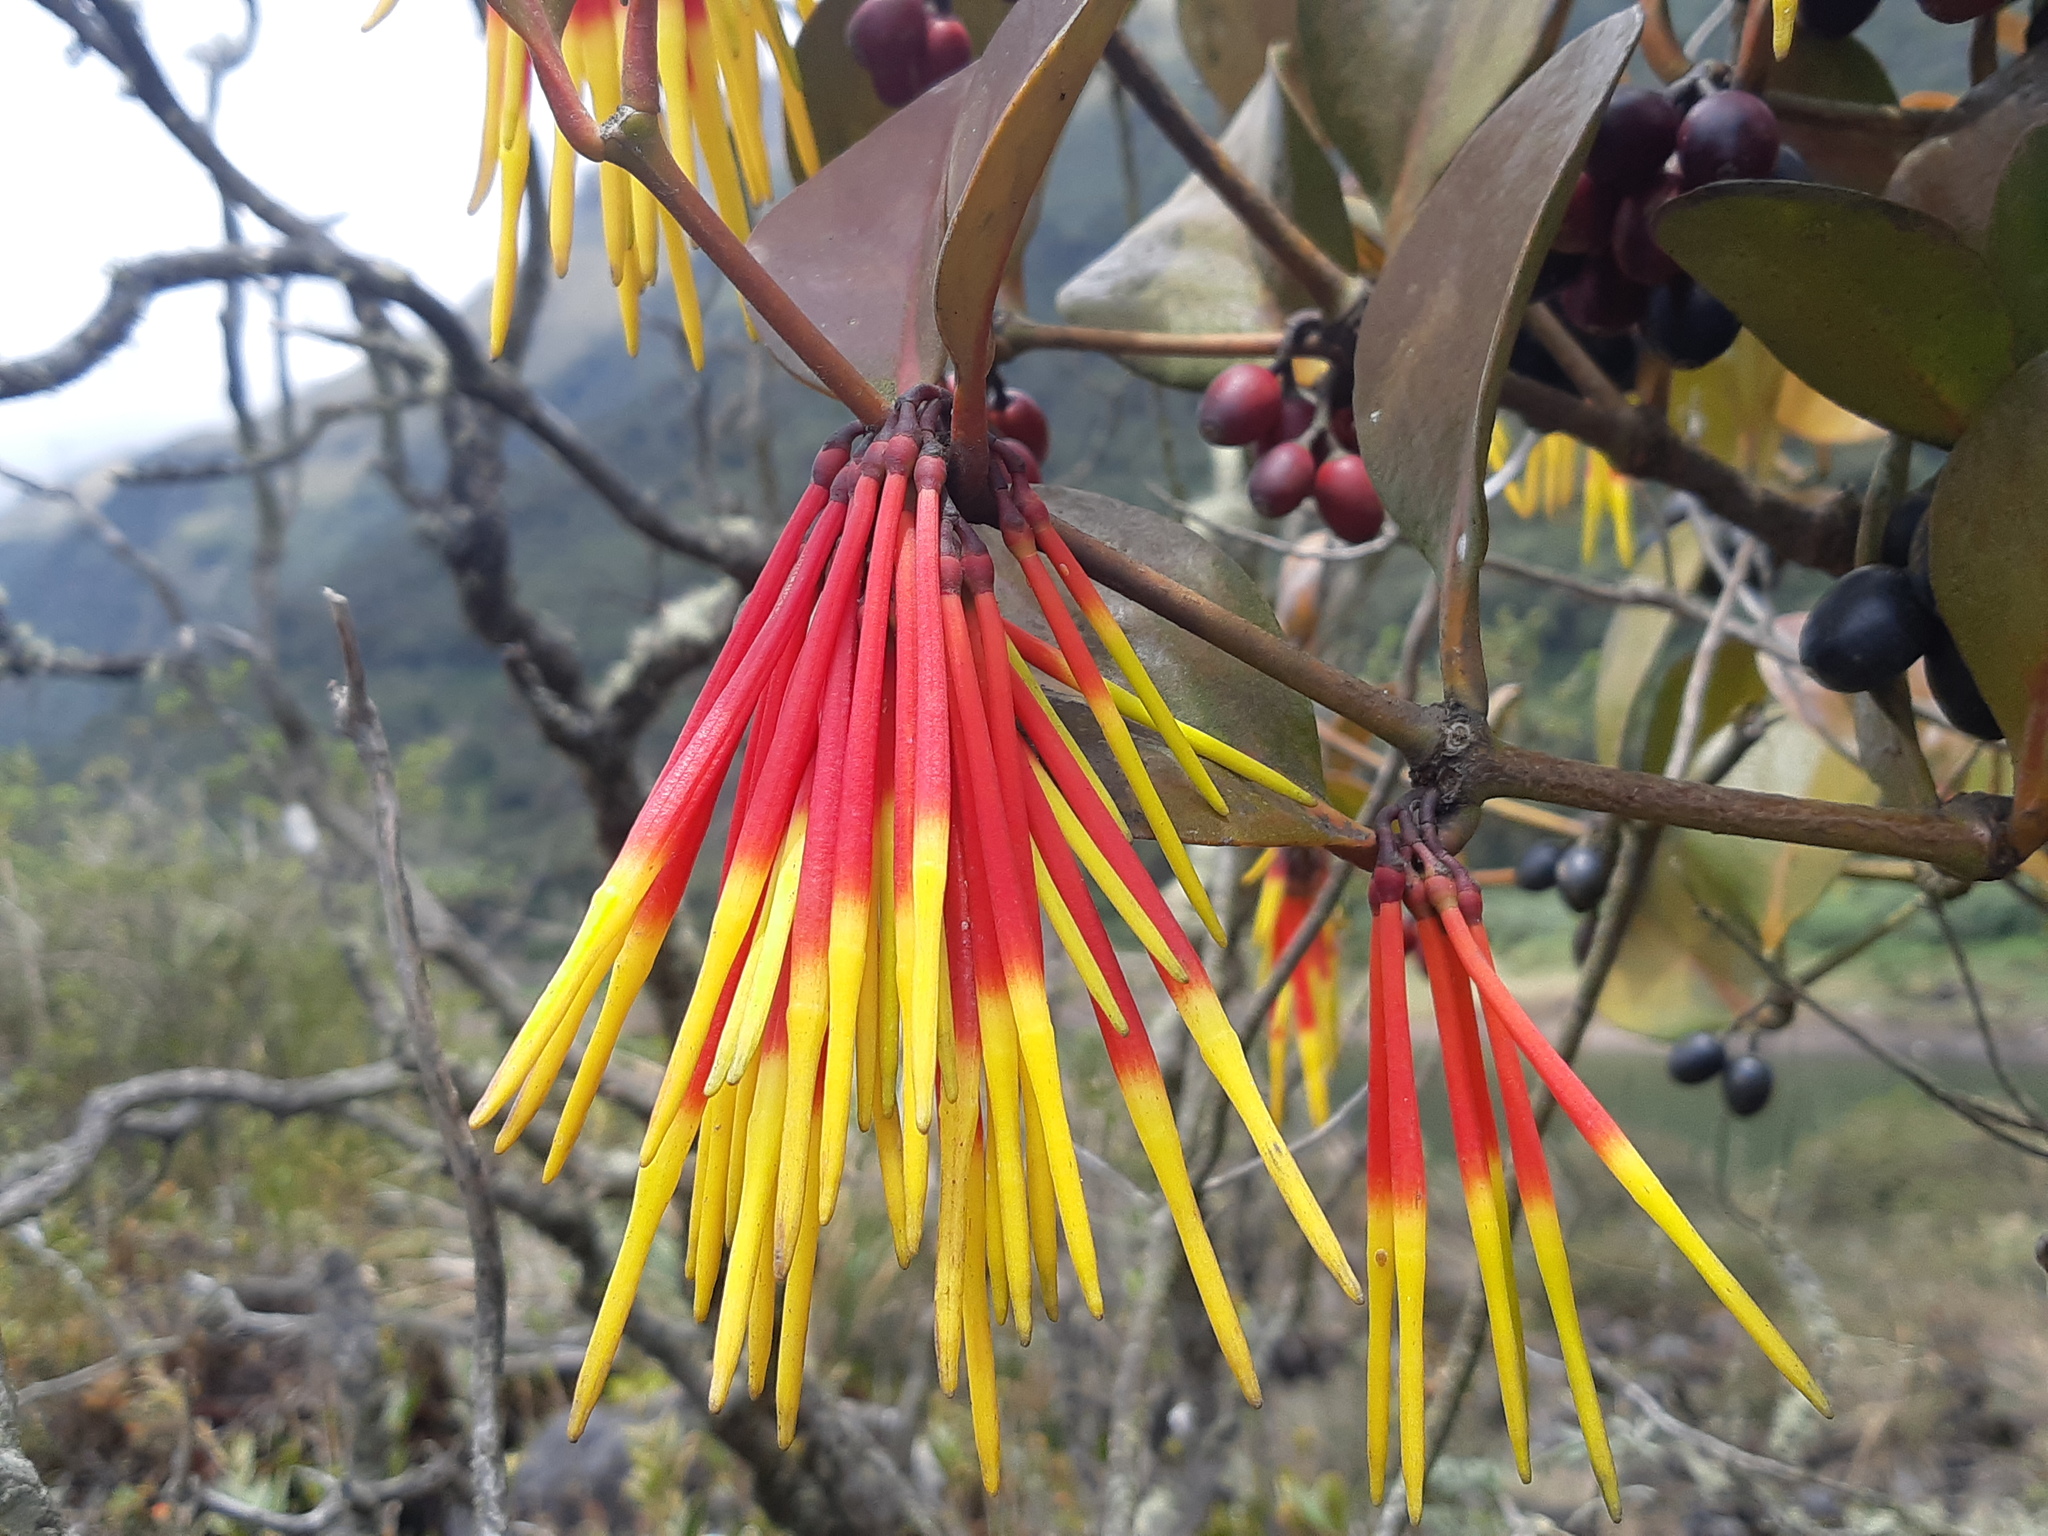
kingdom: Plantae
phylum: Tracheophyta
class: Magnoliopsida
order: Santalales
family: Loranthaceae
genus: Aetanthus
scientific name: Aetanthus nodosus
